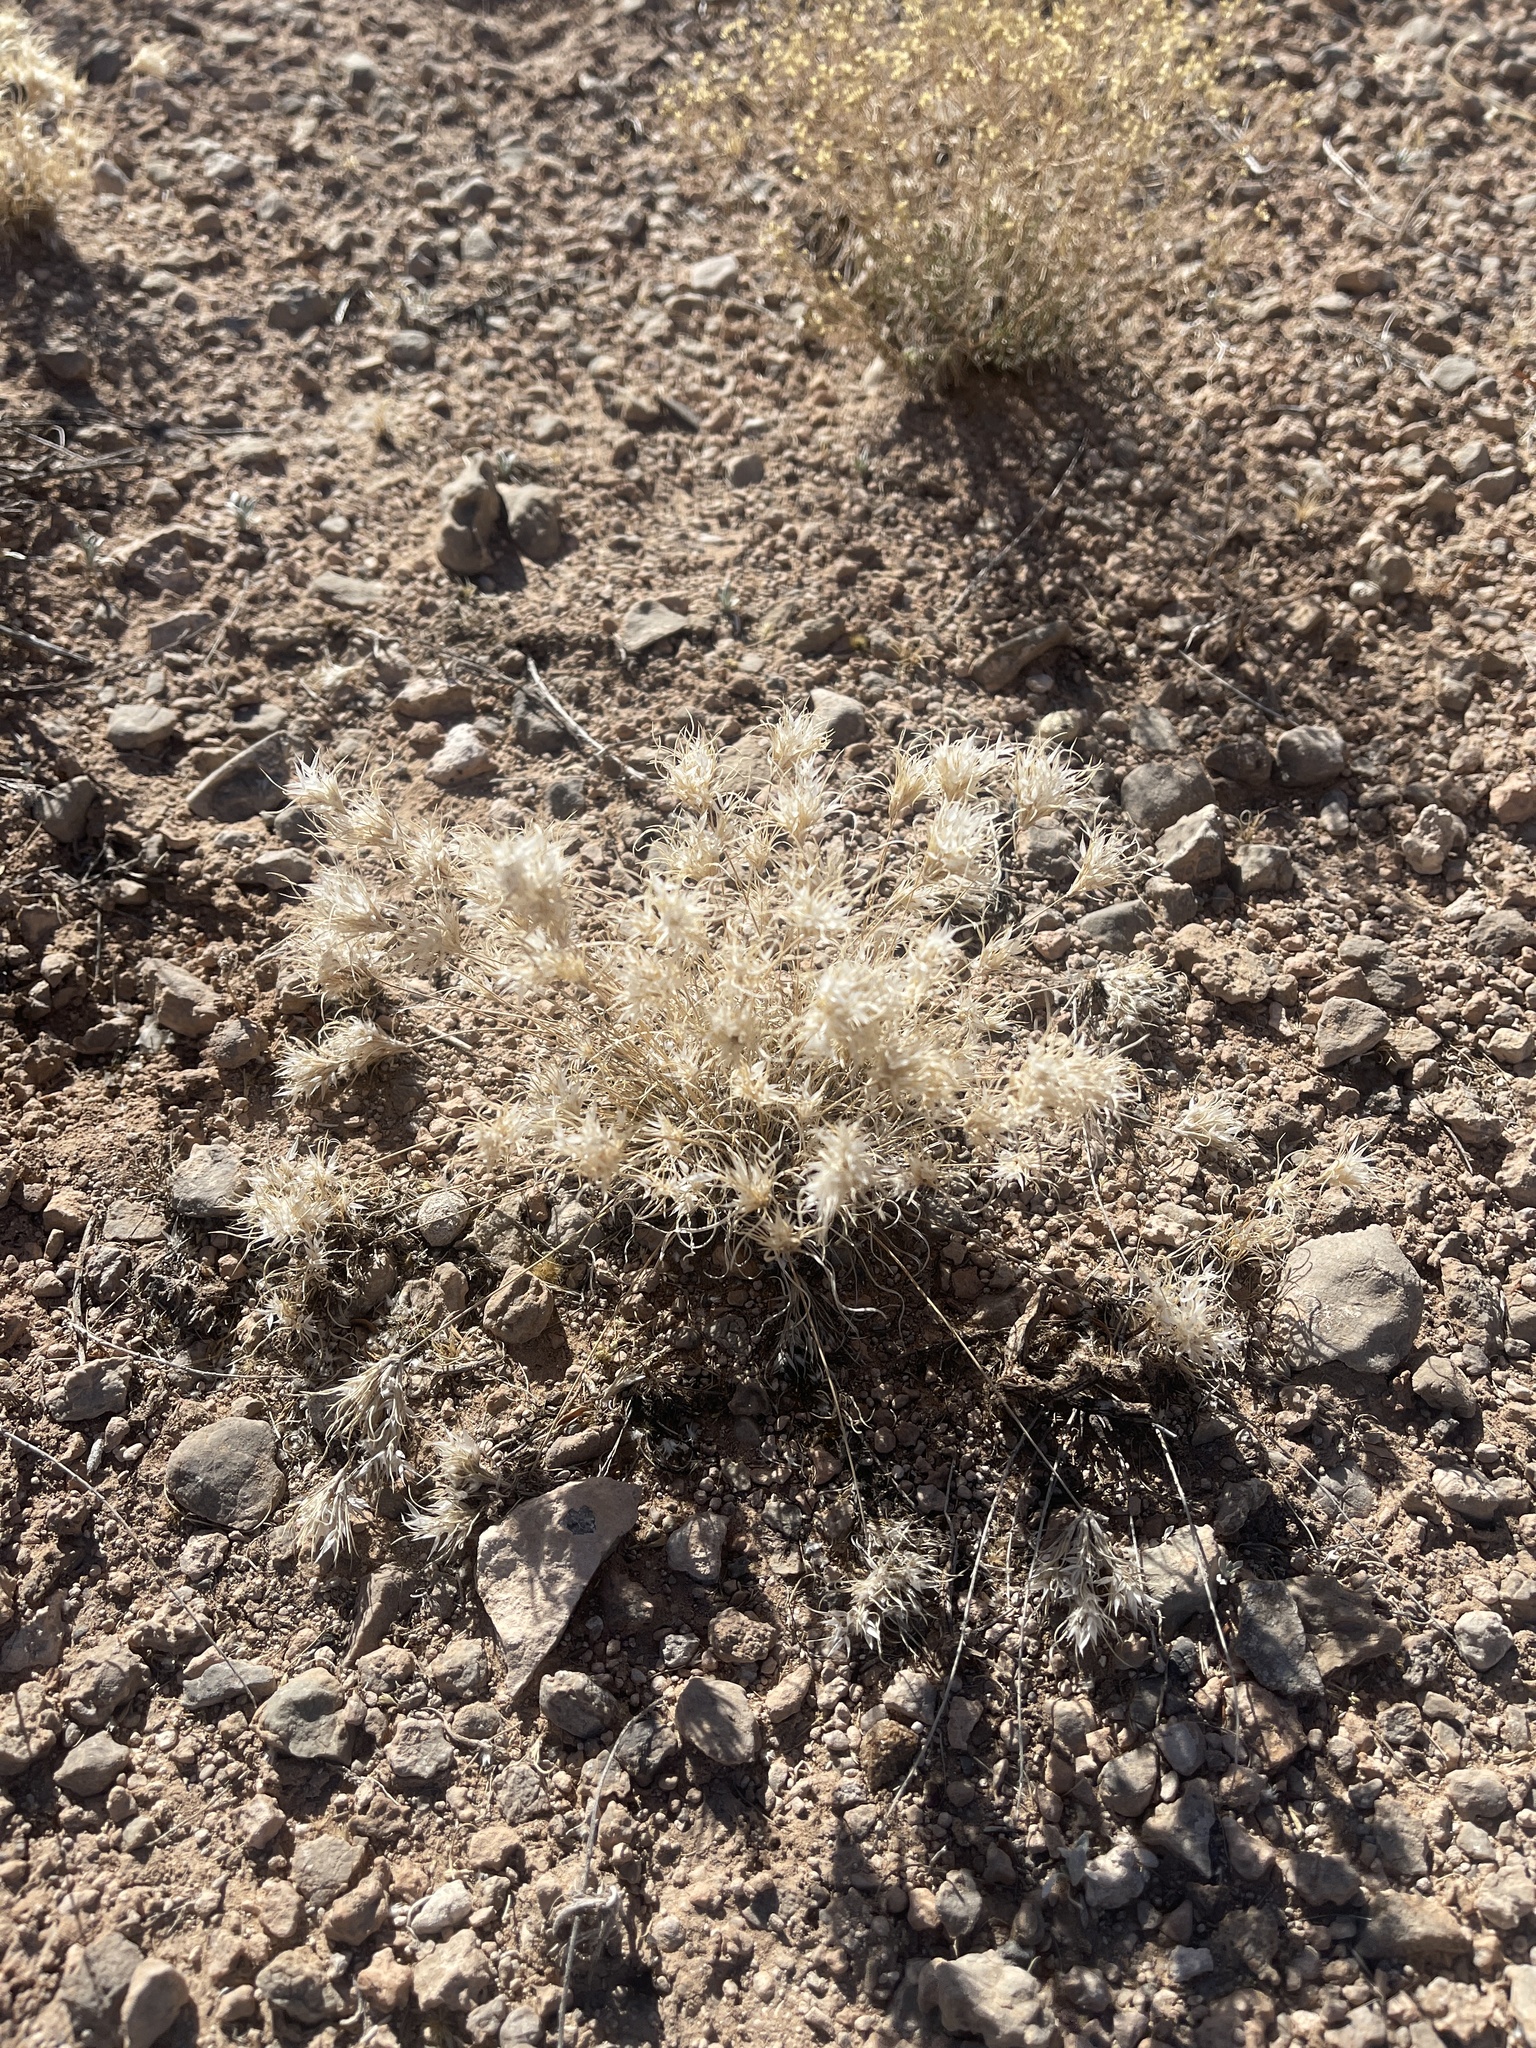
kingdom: Plantae
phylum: Tracheophyta
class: Liliopsida
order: Poales
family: Poaceae
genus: Dasyochloa
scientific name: Dasyochloa pulchella
